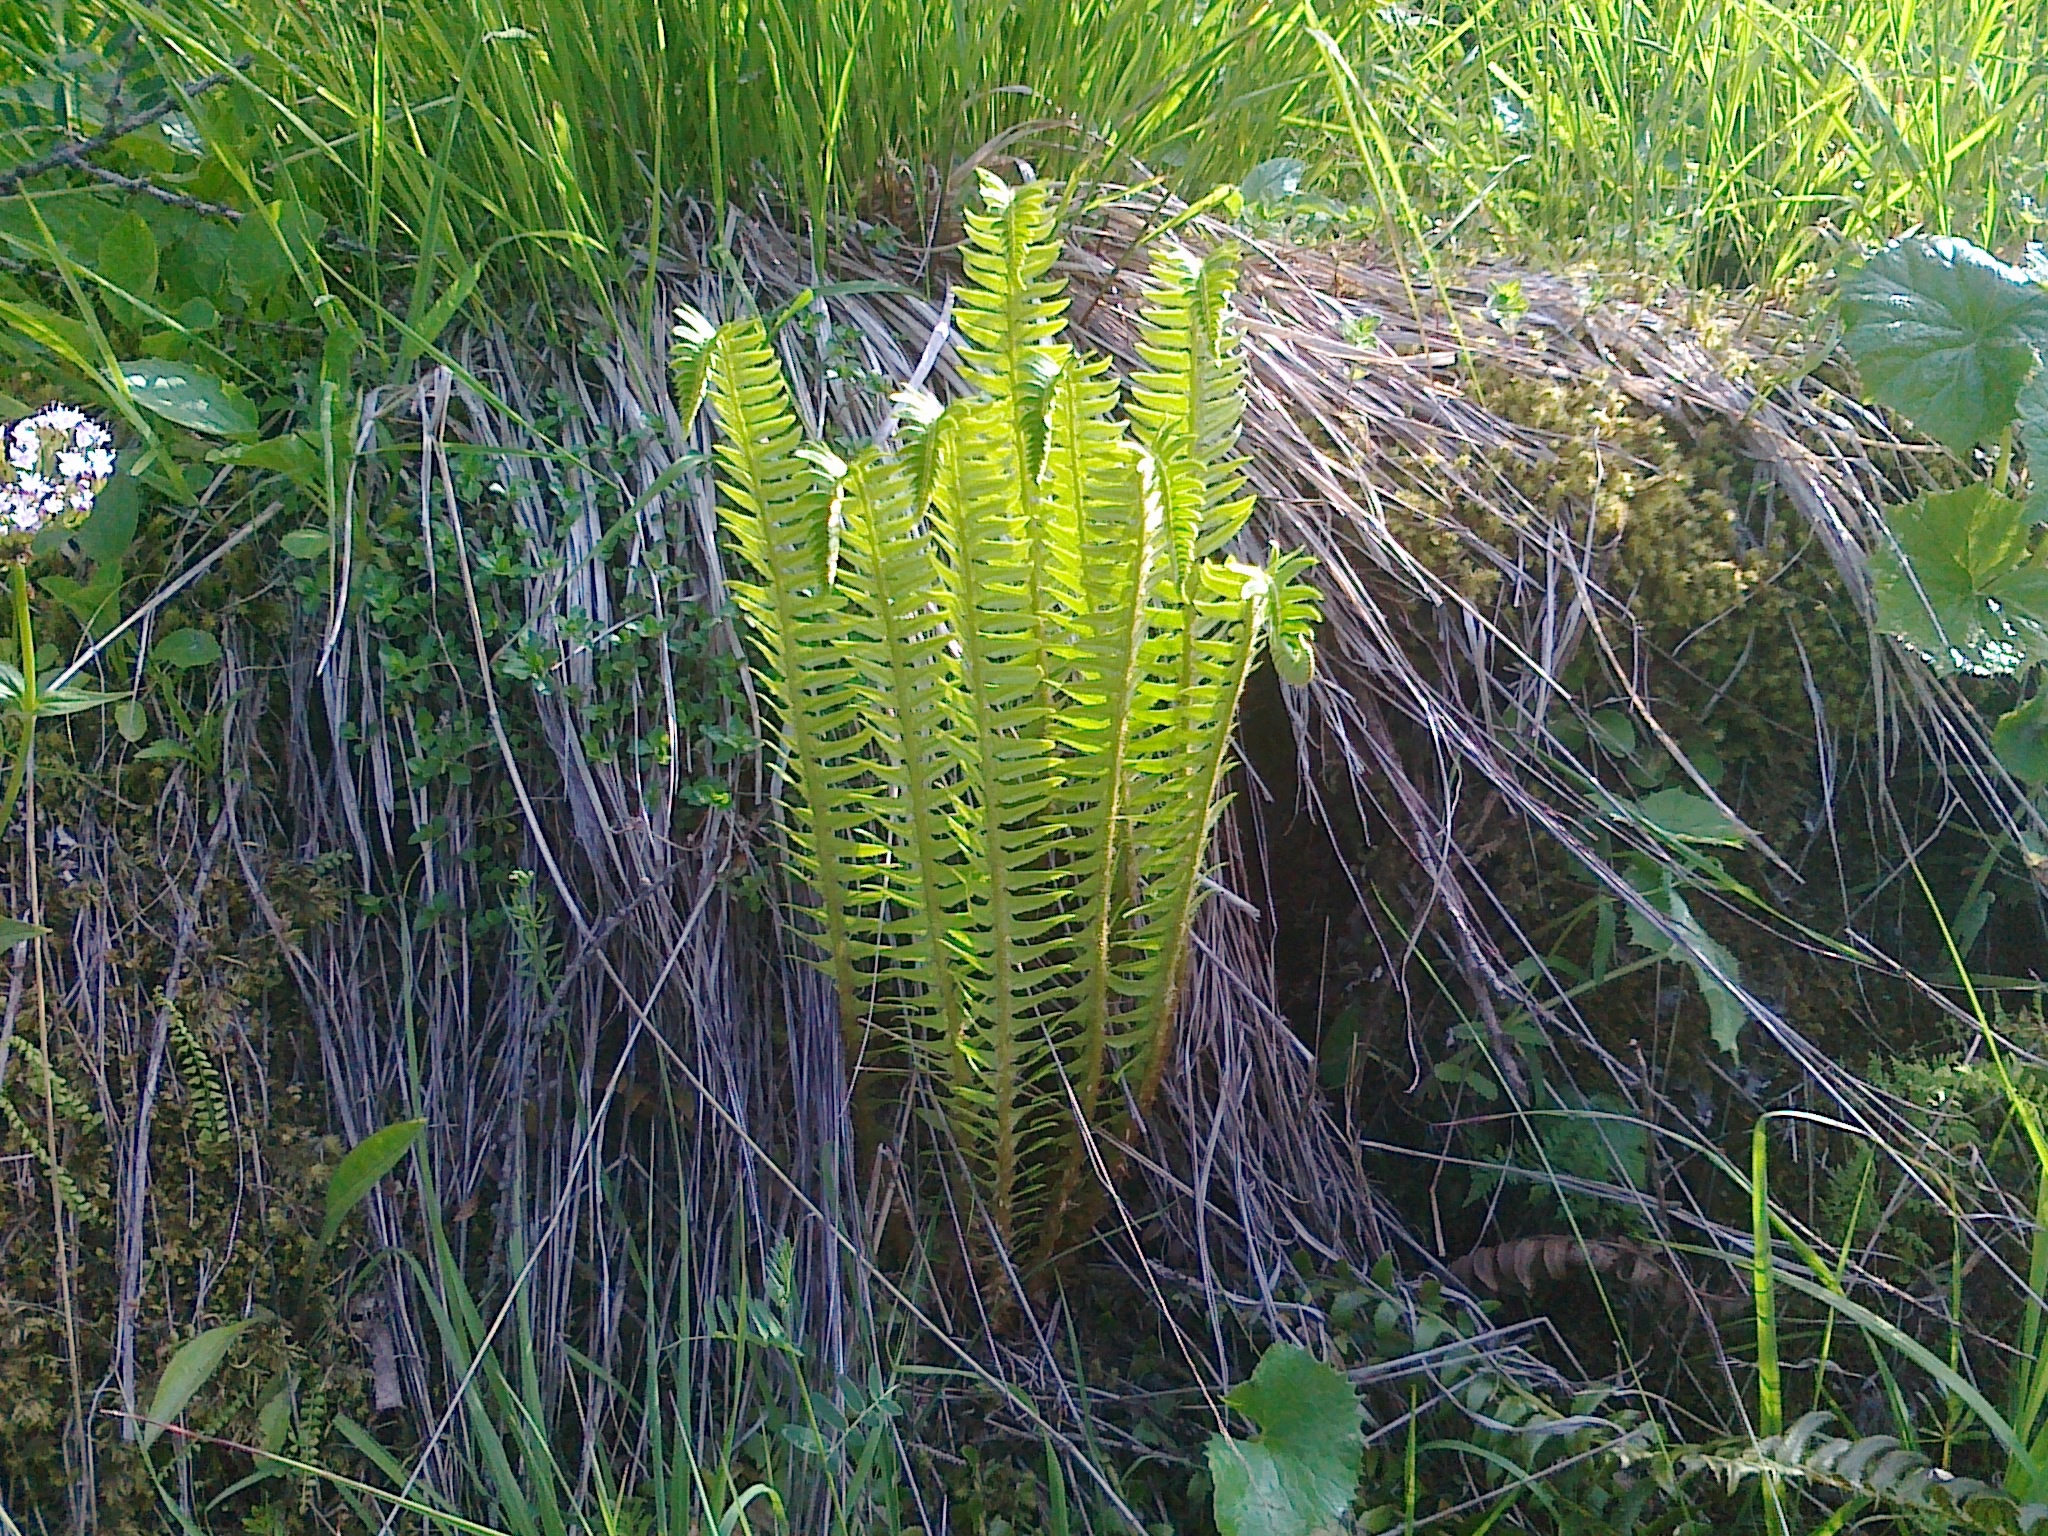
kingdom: Plantae
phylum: Tracheophyta
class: Polypodiopsida
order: Polypodiales
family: Dryopteridaceae
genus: Polystichum
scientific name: Polystichum lonchitis
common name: Holly fern
